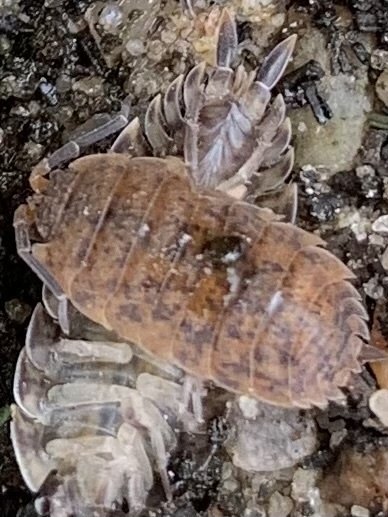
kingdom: Animalia
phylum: Arthropoda
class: Malacostraca
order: Isopoda
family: Porcellionidae
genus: Porcellio
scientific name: Porcellio scaber
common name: Common rough woodlouse
